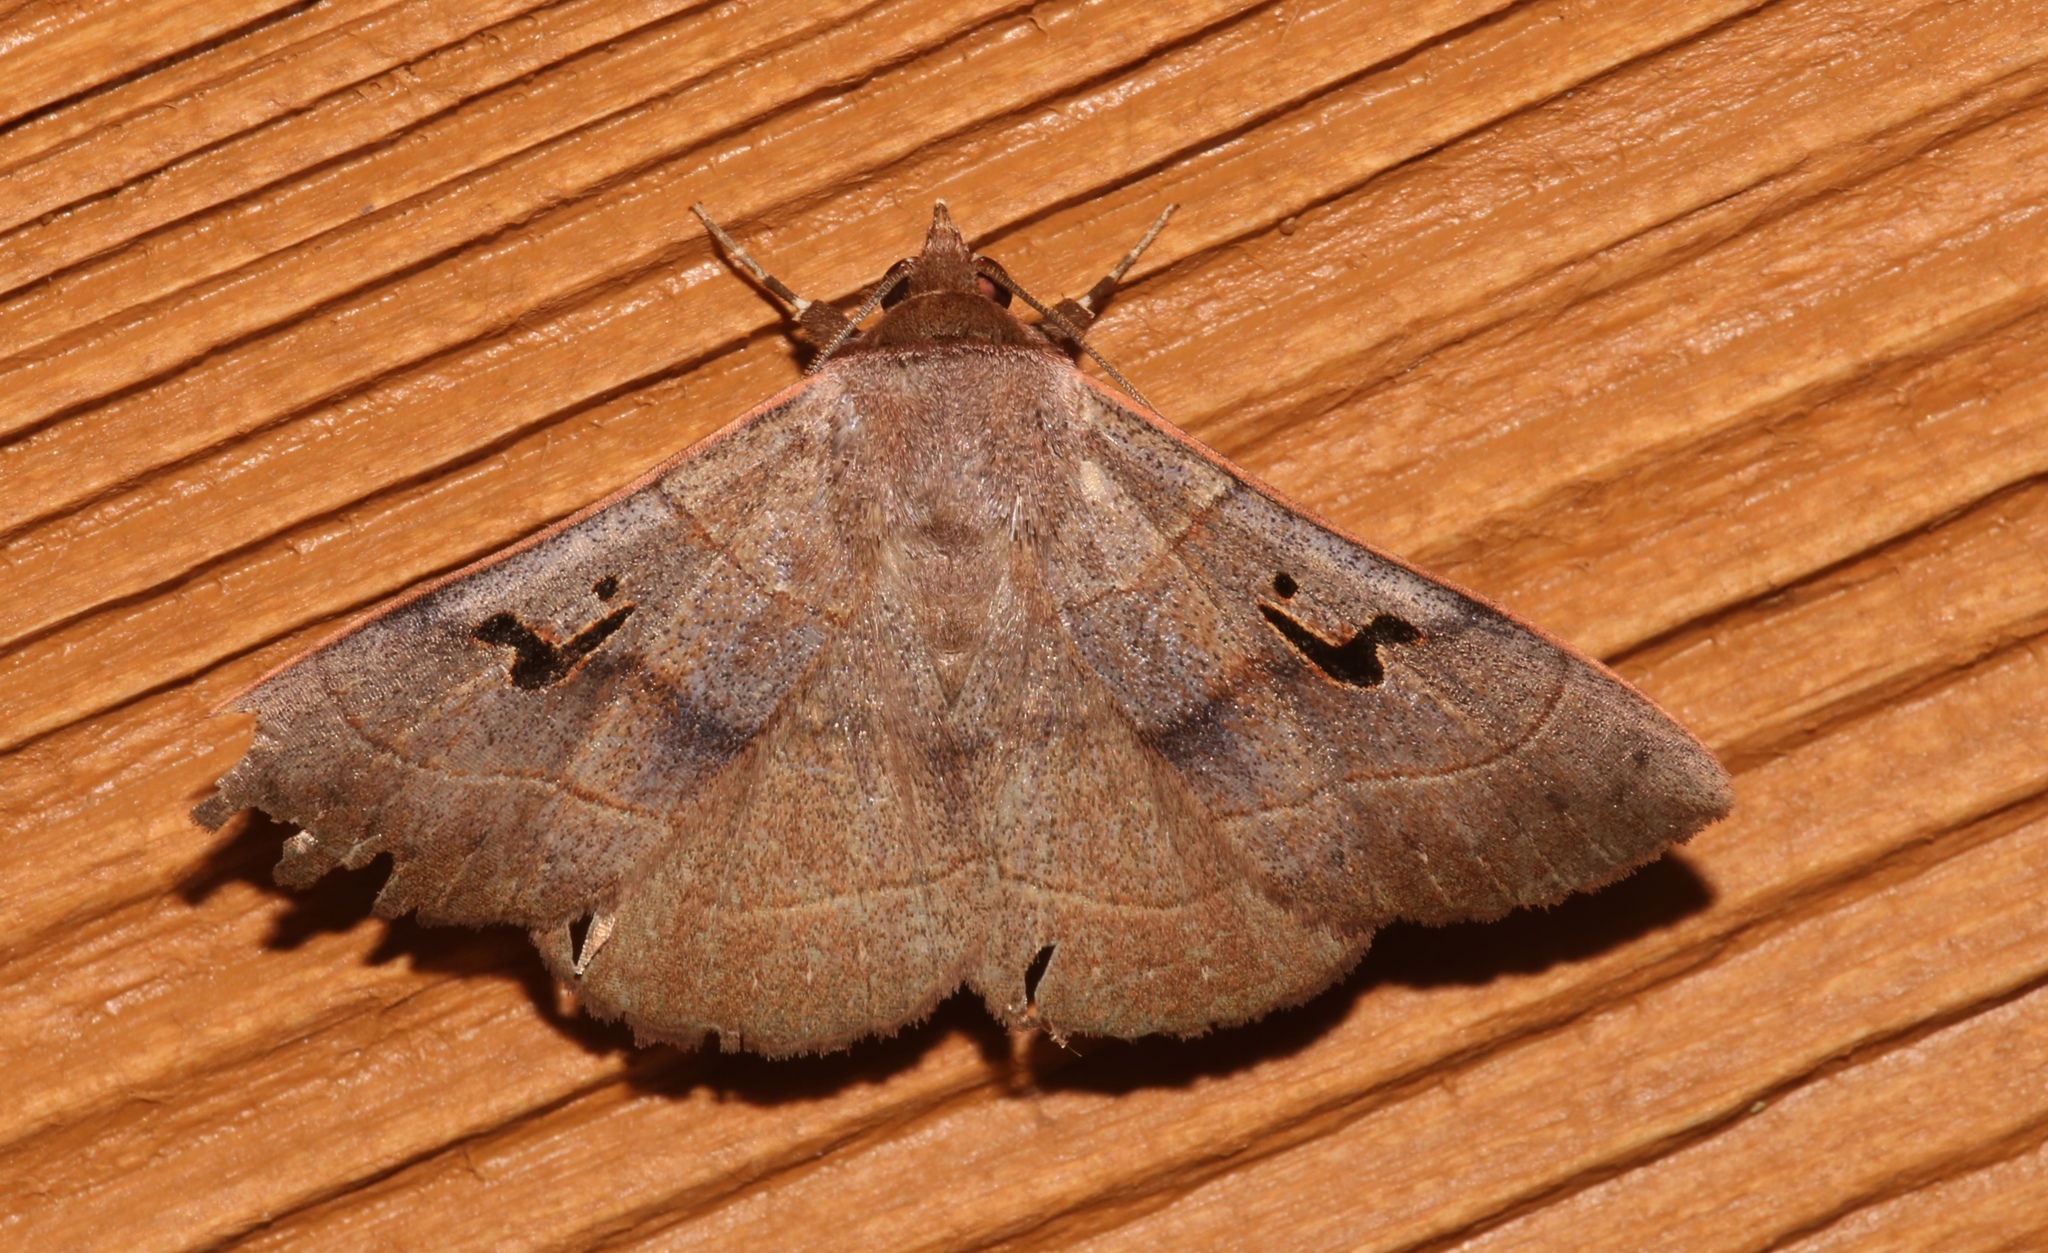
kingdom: Animalia
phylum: Arthropoda
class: Insecta
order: Lepidoptera
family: Erebidae
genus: Panopoda
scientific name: Panopoda carneicosta
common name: Brown panopoda moth
